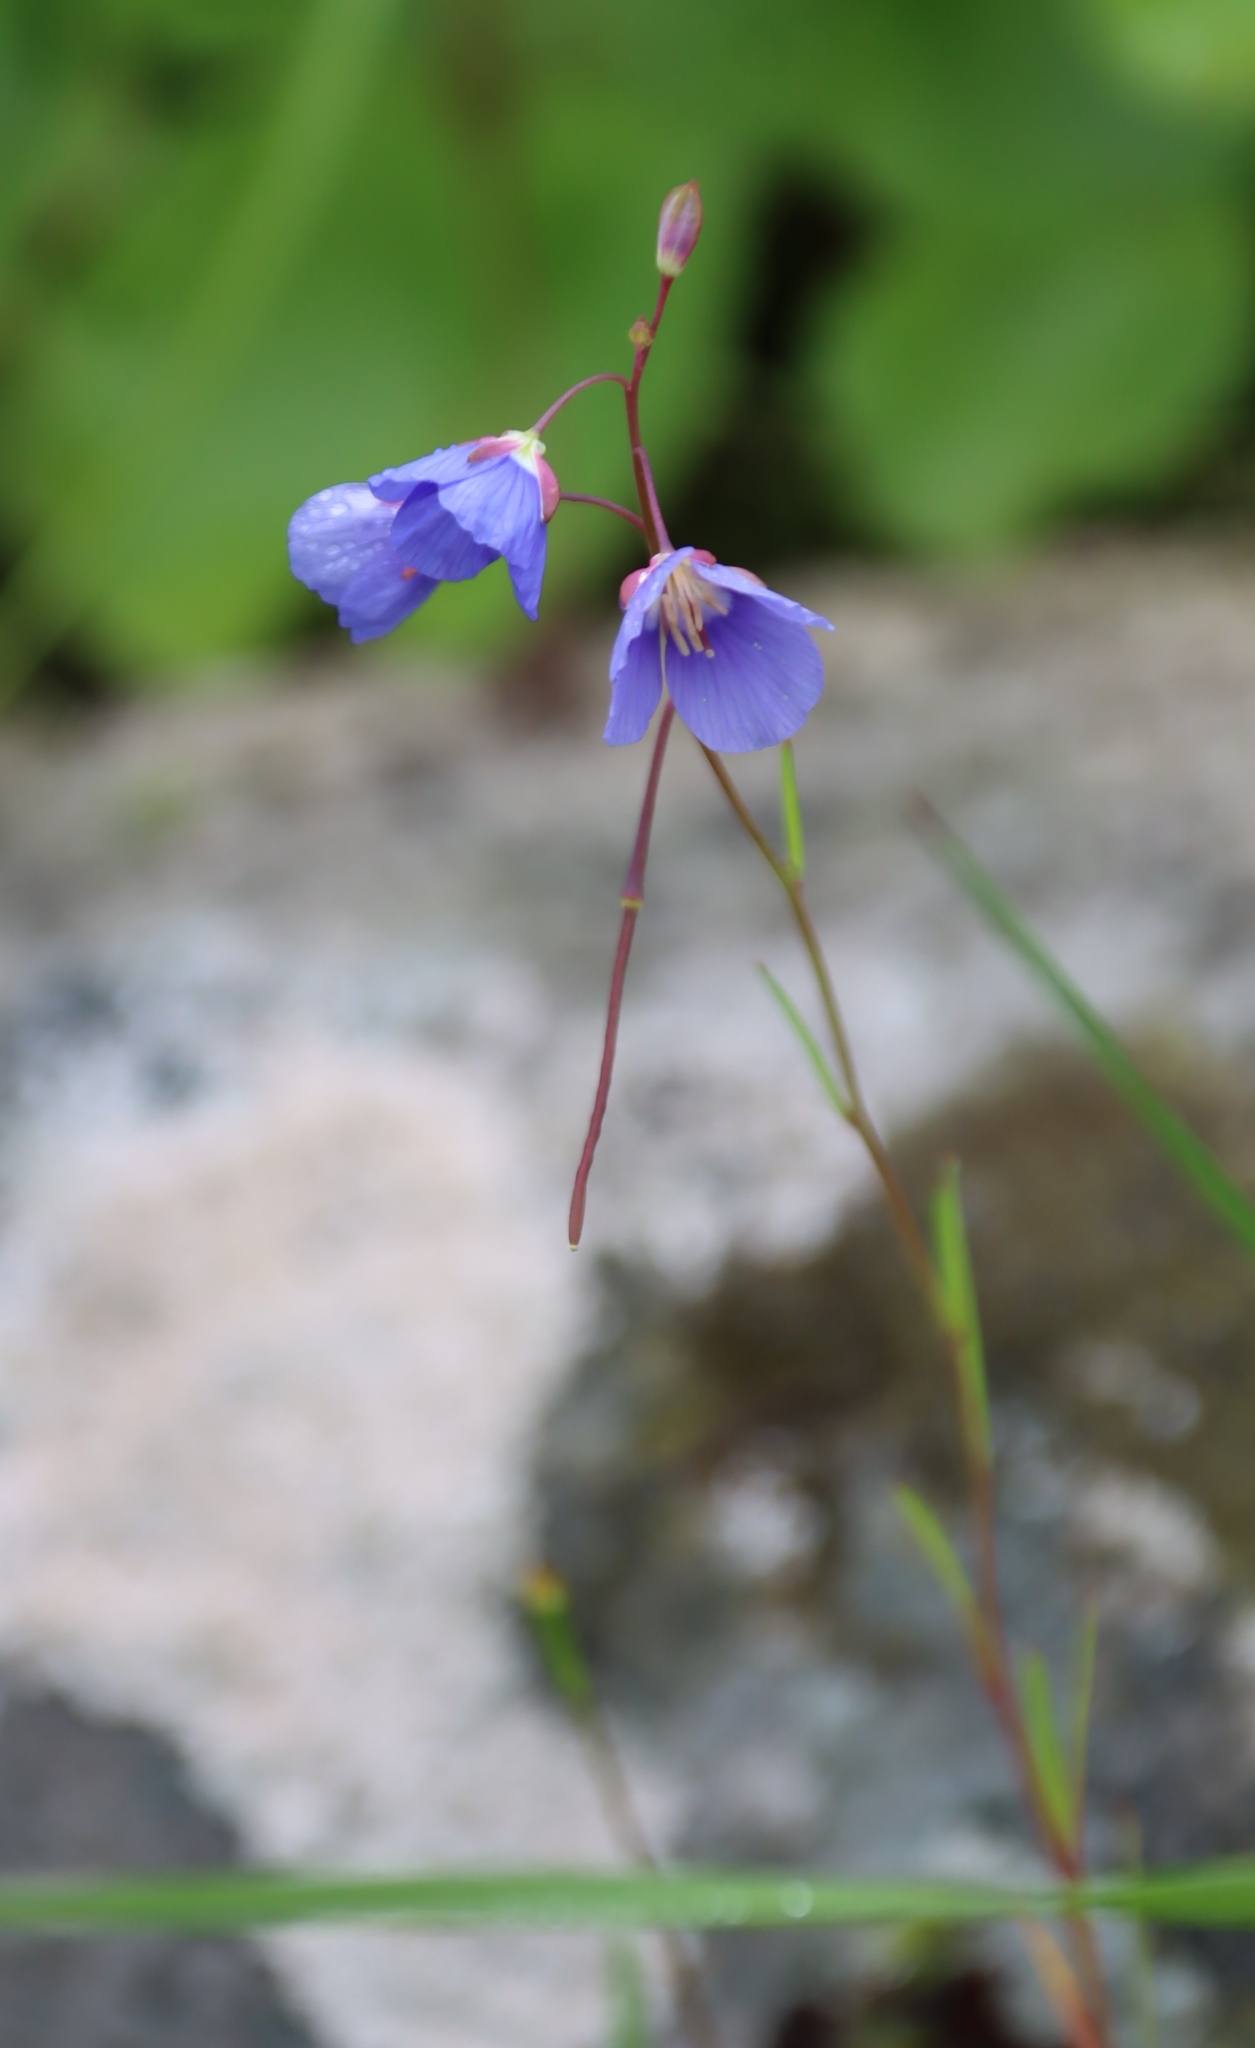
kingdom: Plantae
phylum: Tracheophyta
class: Magnoliopsida
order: Brassicales
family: Brassicaceae
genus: Heliophila
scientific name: Heliophila coronopifolia
